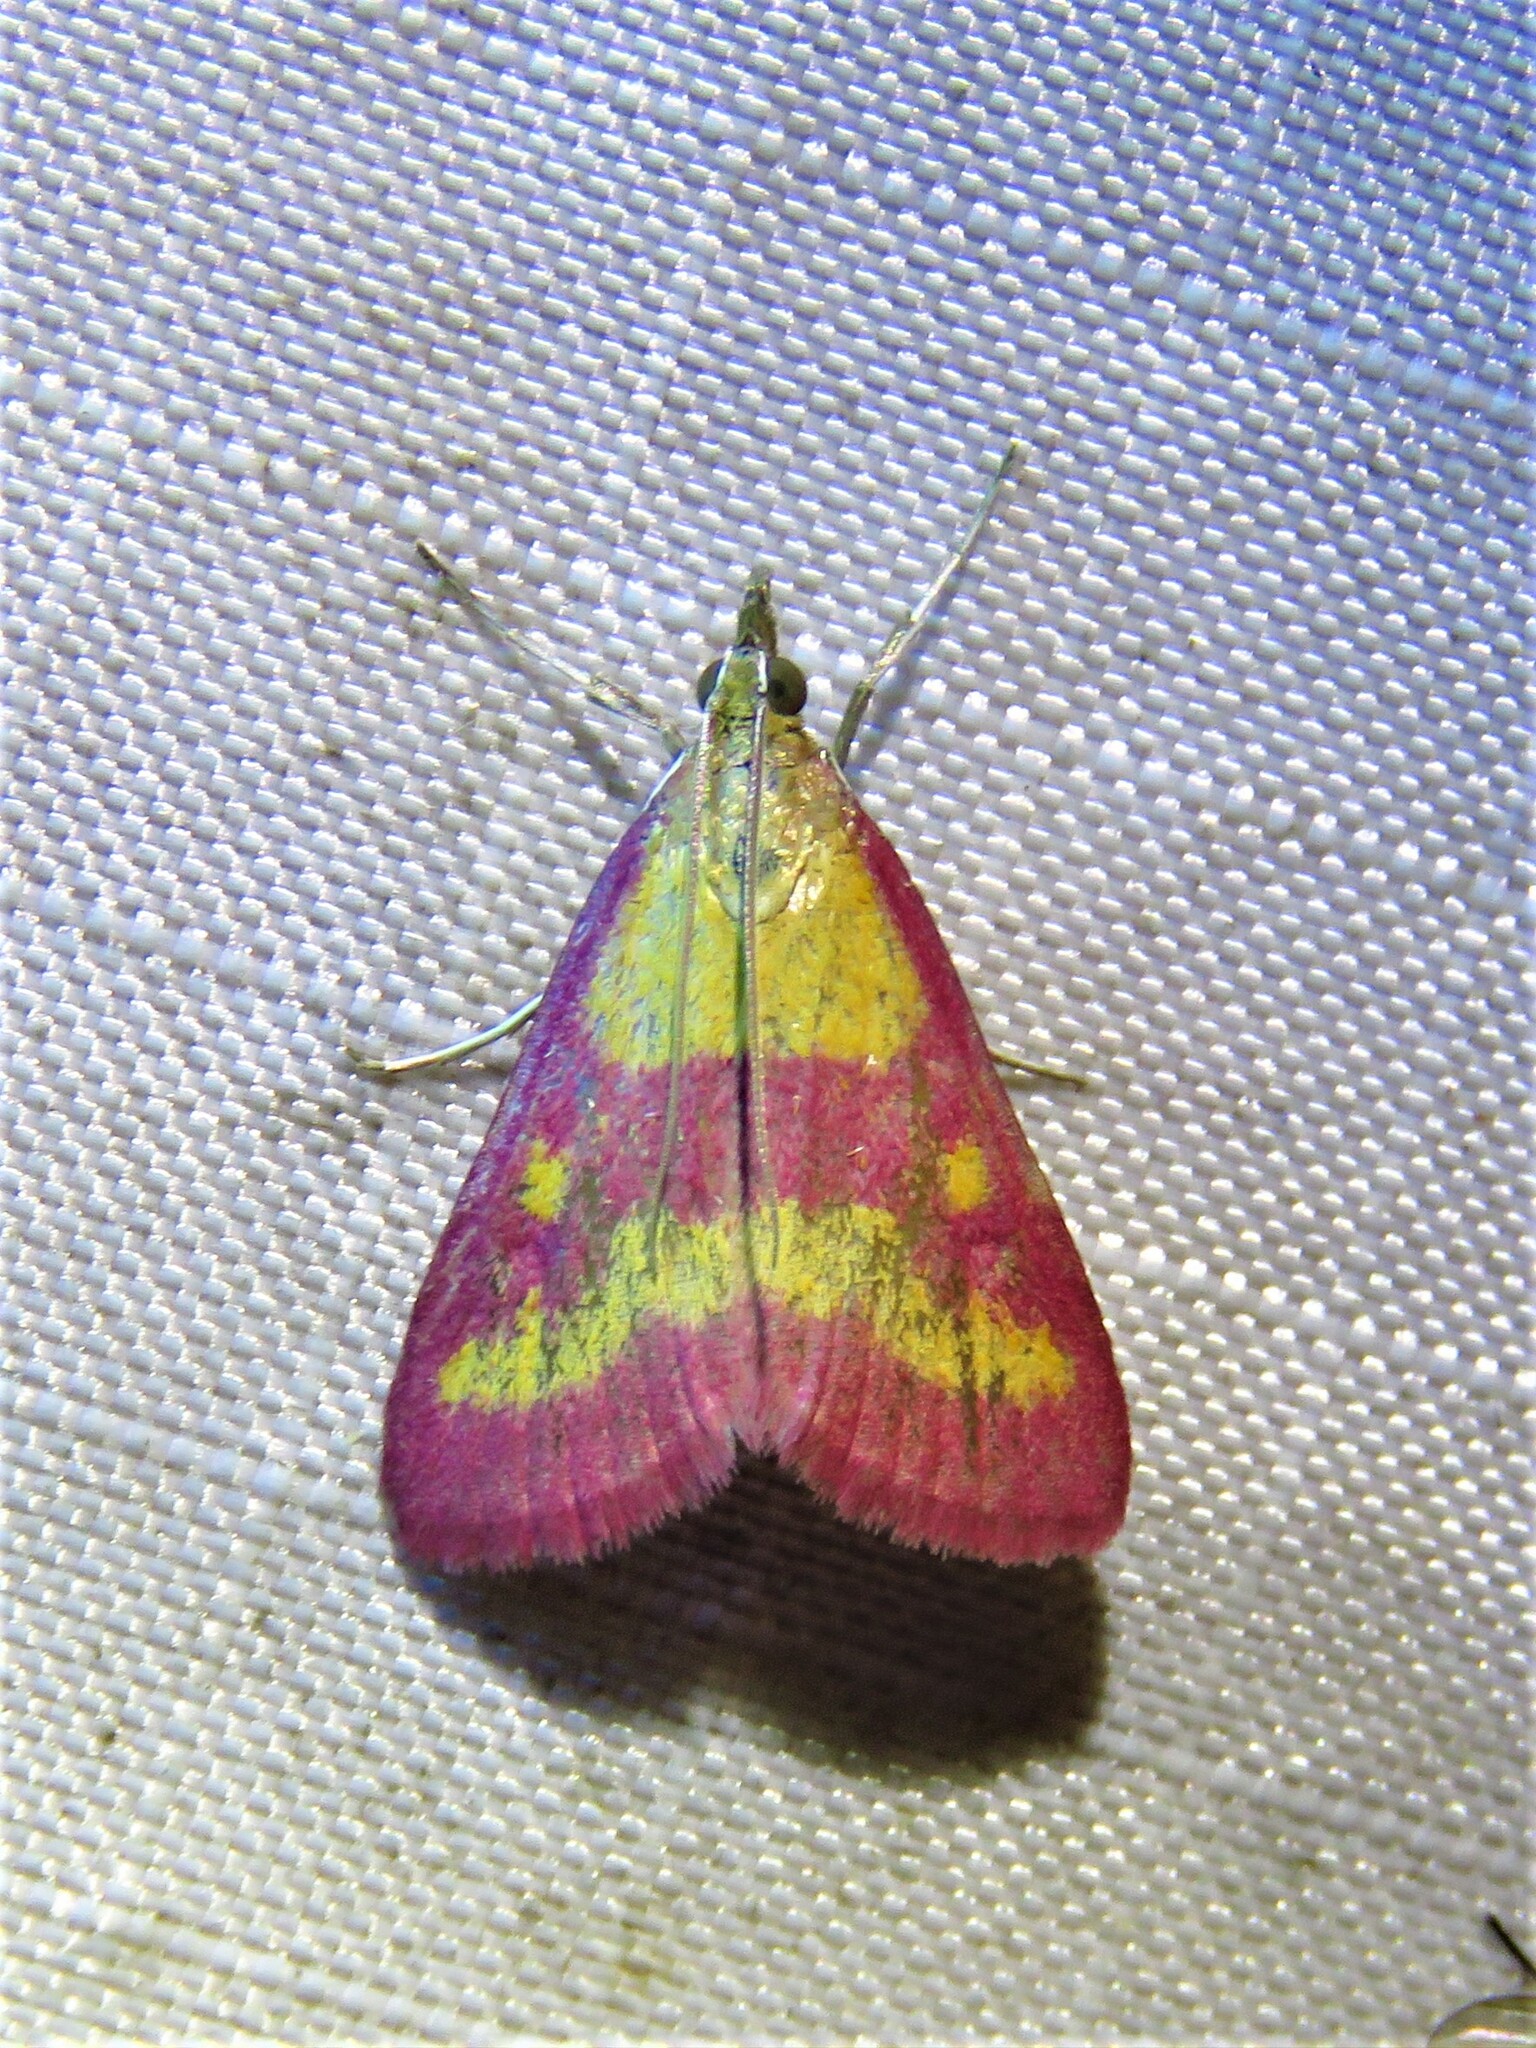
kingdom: Animalia
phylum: Arthropoda
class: Insecta
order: Lepidoptera
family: Crambidae
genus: Pyrausta
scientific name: Pyrausta laticlavia
